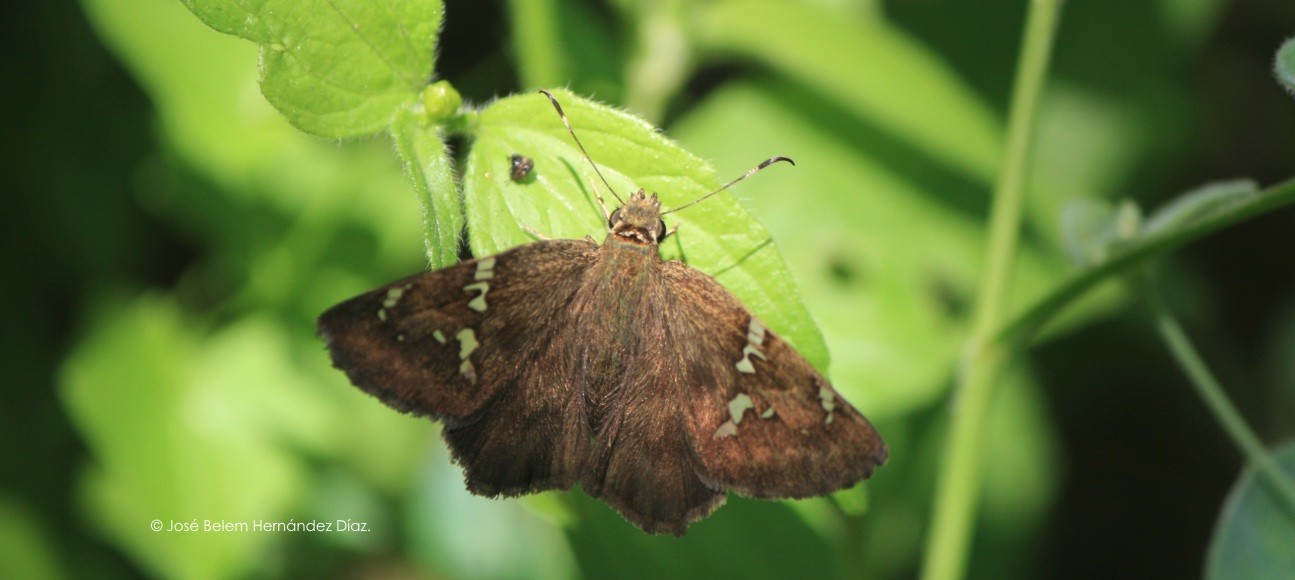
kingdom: Animalia
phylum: Arthropoda
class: Insecta
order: Lepidoptera
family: Hesperiidae
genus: Autochton
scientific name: Autochton potrillo
